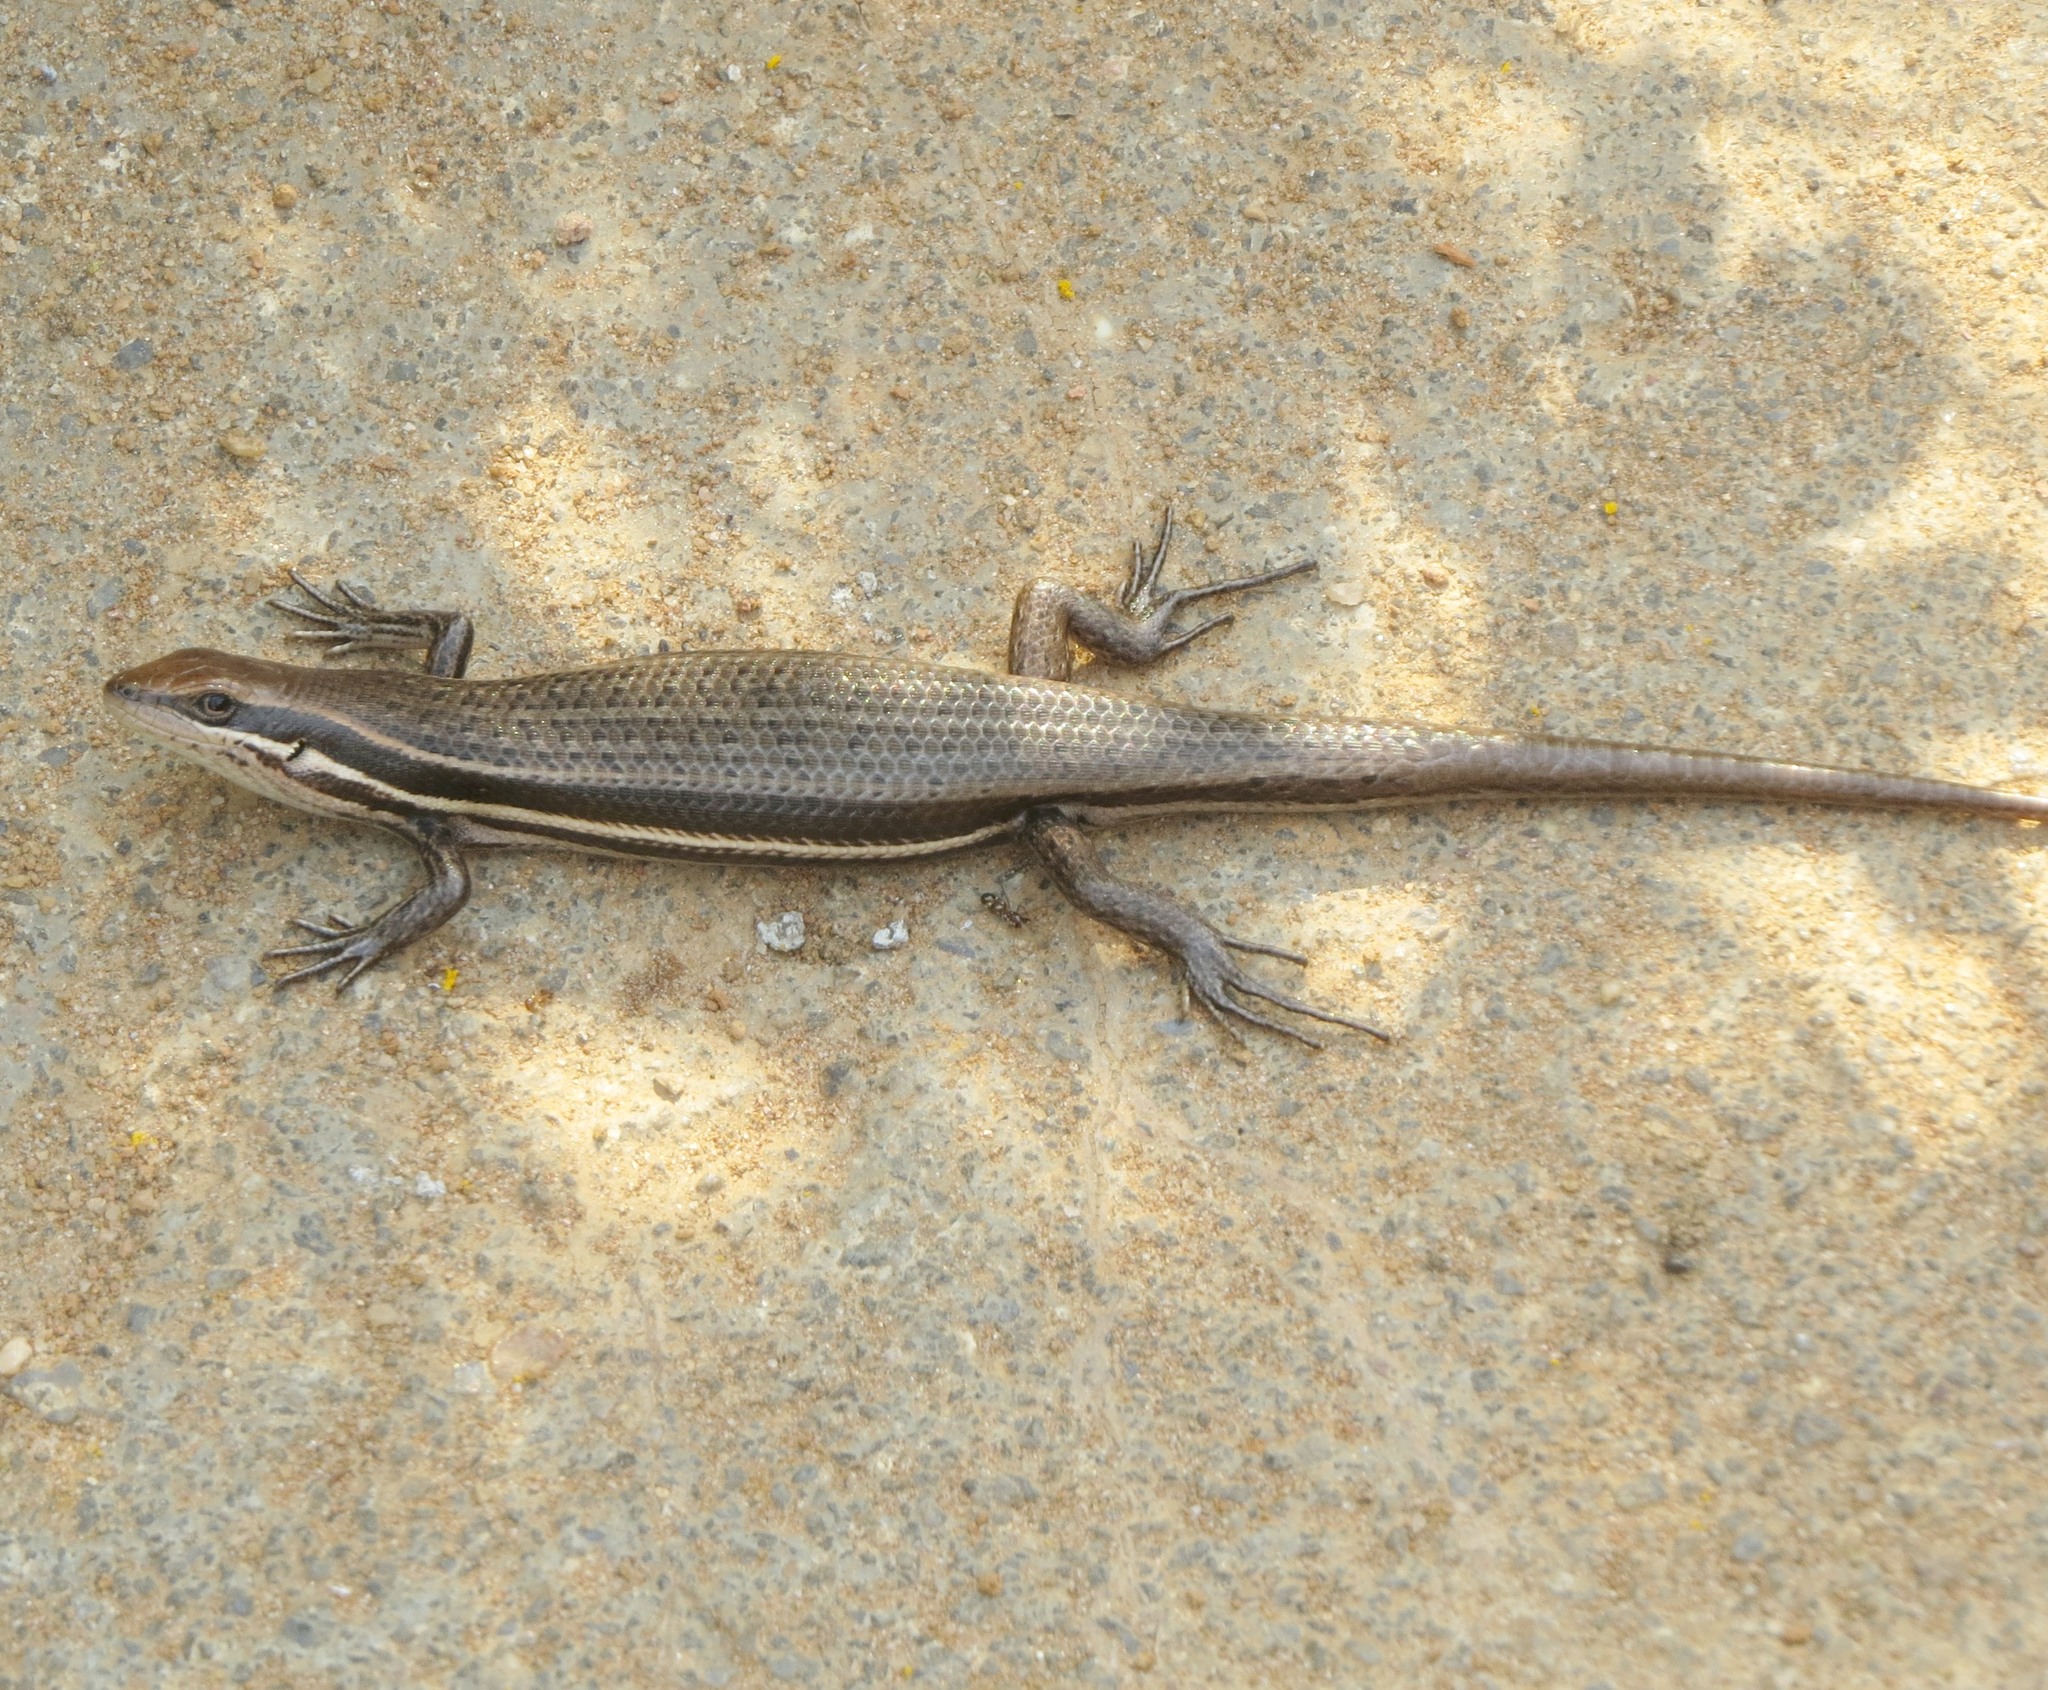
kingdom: Animalia
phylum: Chordata
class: Squamata
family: Scincidae
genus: Trachylepis
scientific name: Trachylepis gravenhorstii
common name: Gravenhorst's mabuya
